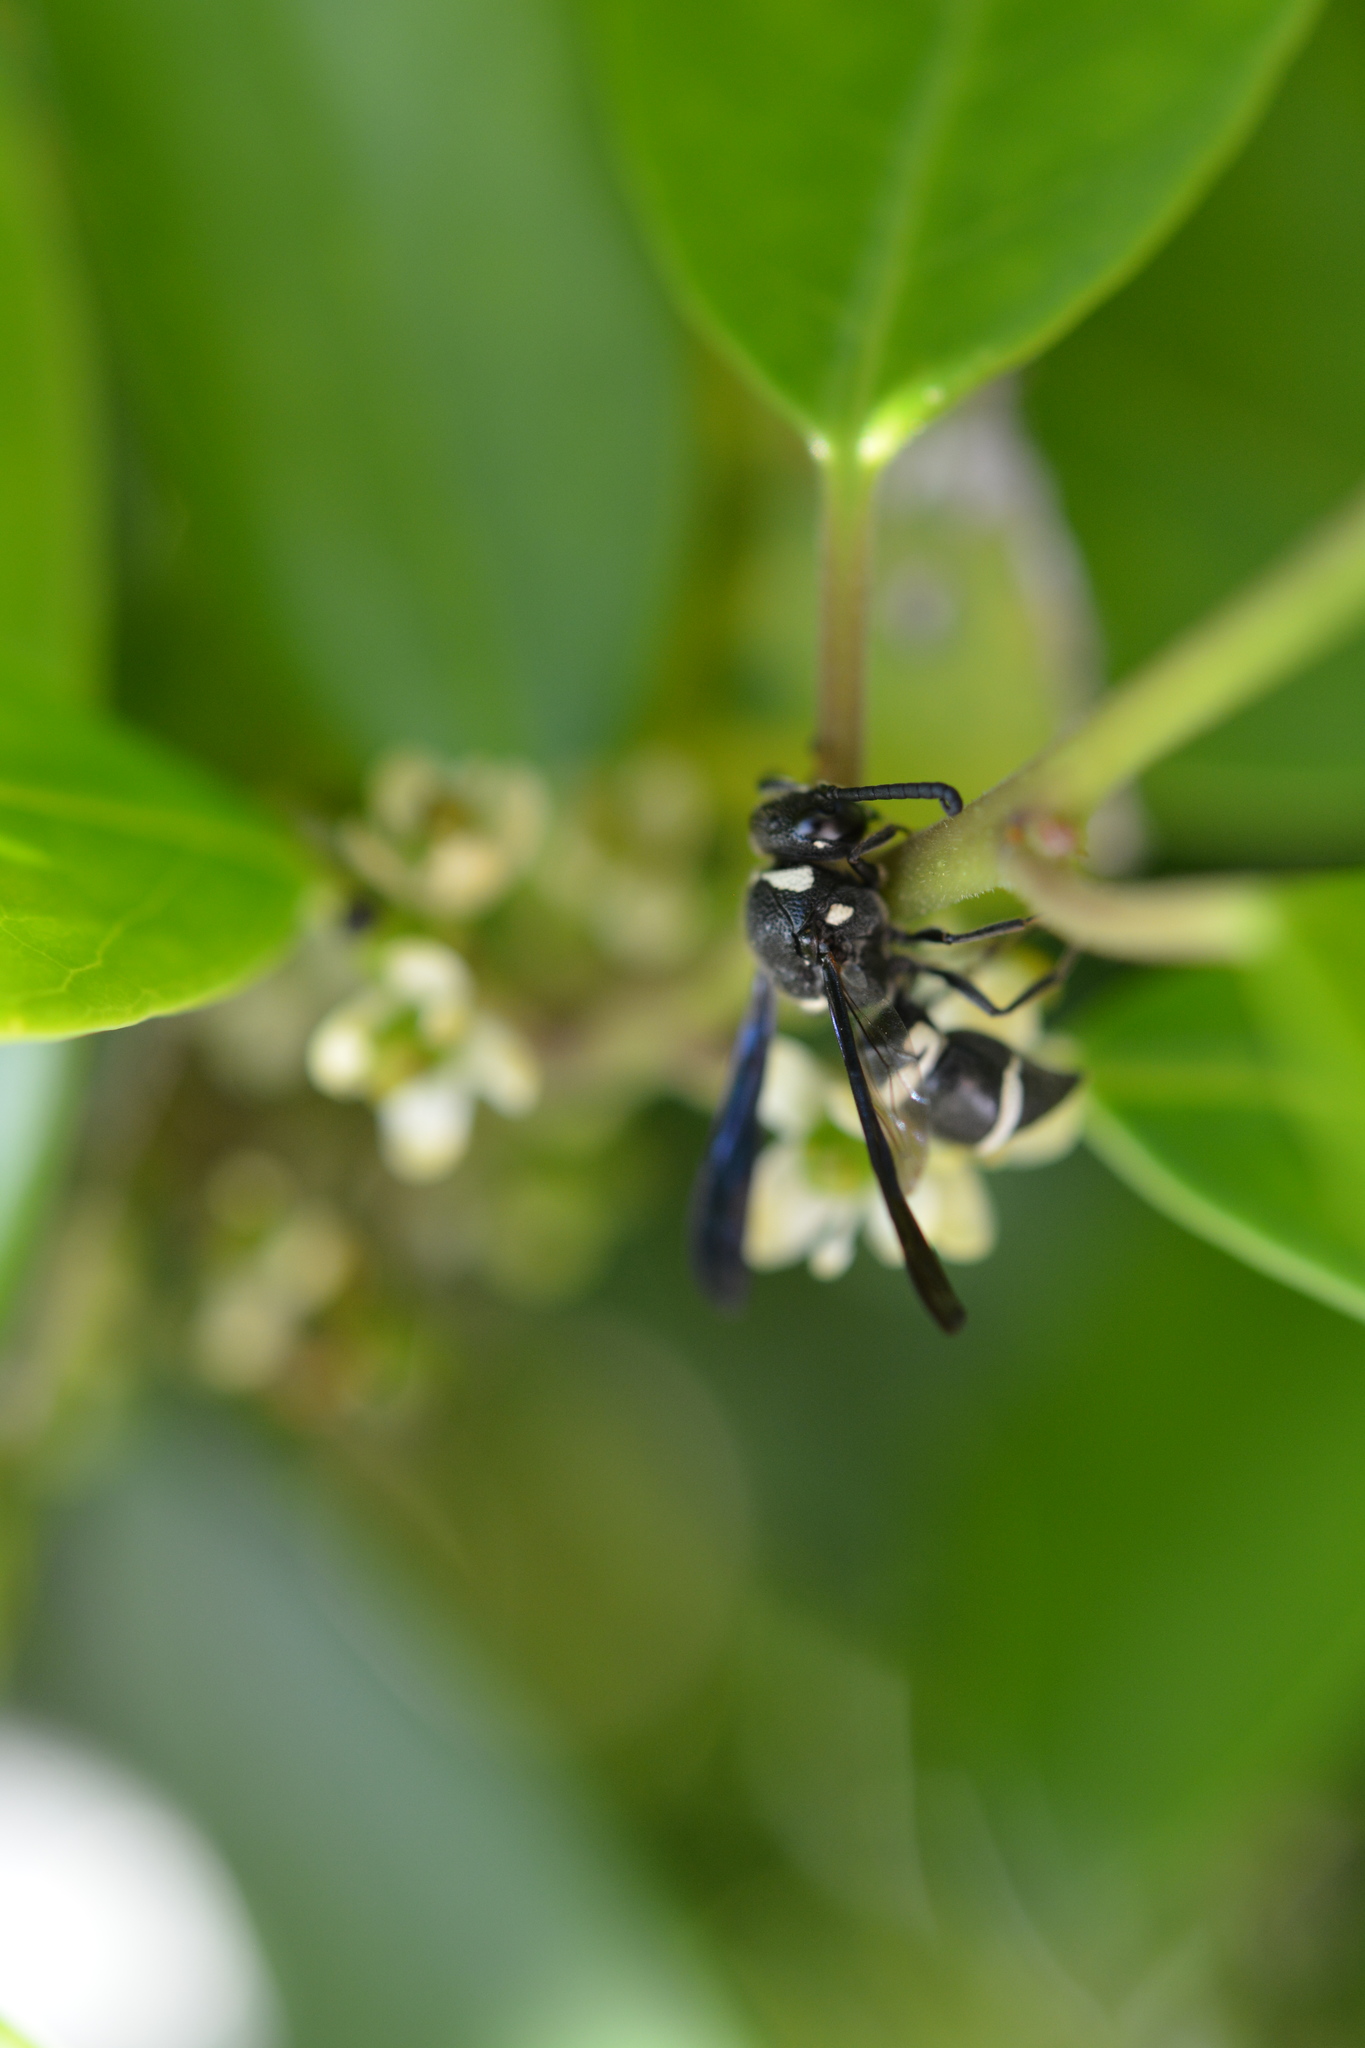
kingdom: Animalia
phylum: Arthropoda
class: Insecta
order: Hymenoptera
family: Eumenidae
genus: Euodynerus
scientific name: Euodynerus megaera
